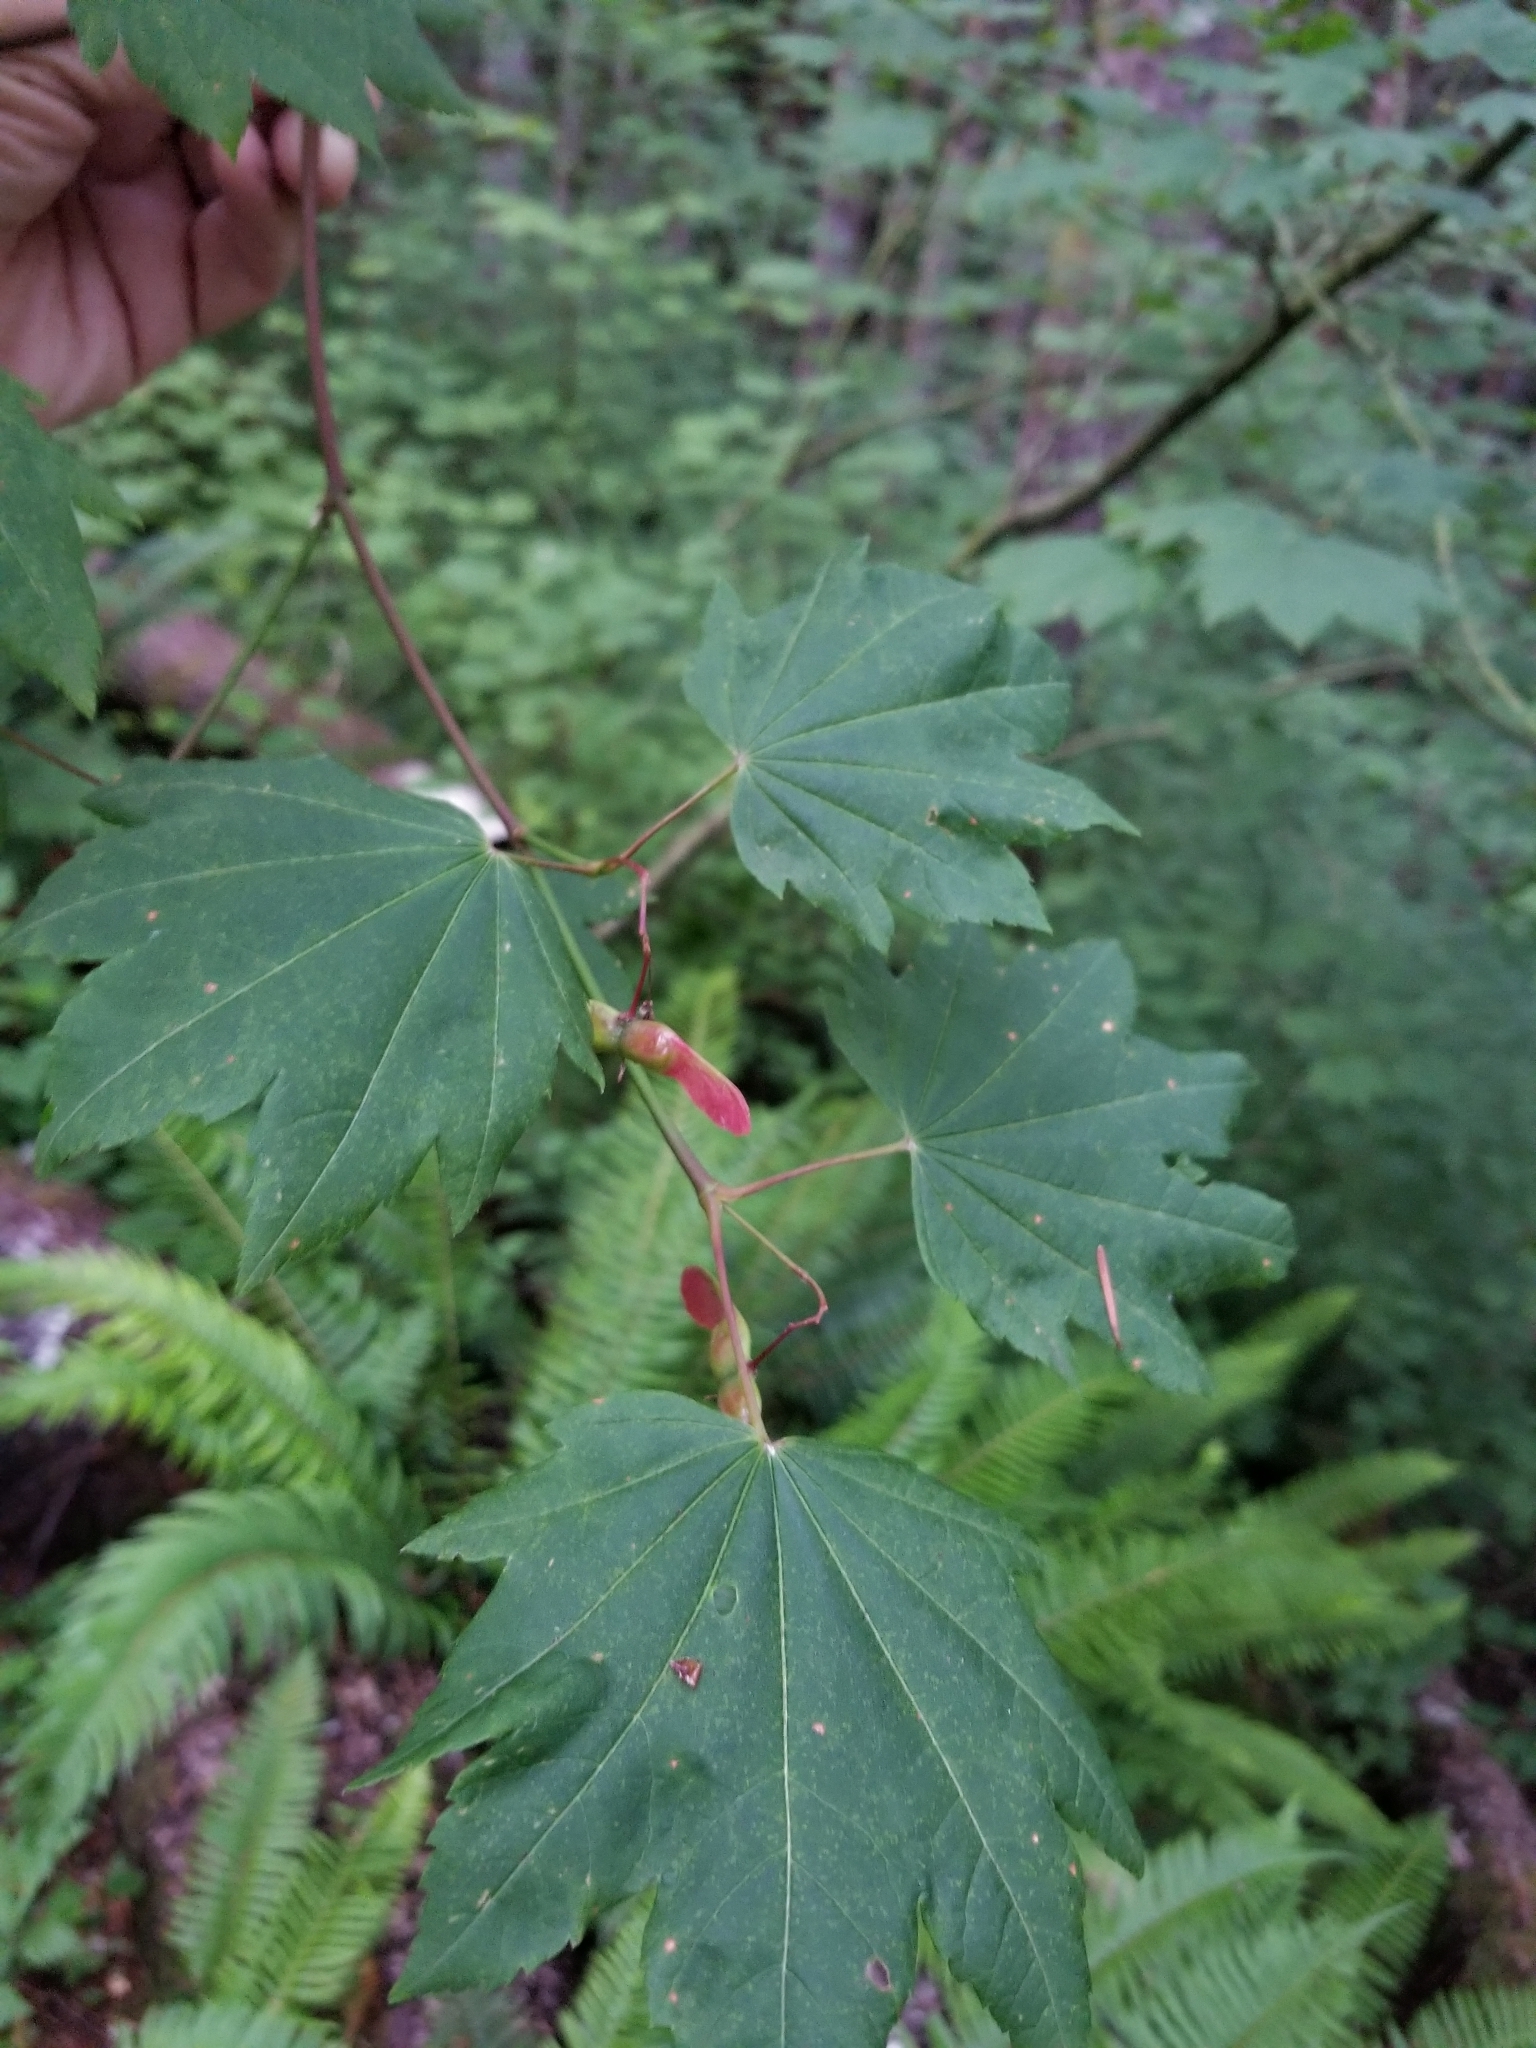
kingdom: Plantae
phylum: Tracheophyta
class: Magnoliopsida
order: Sapindales
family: Sapindaceae
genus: Acer
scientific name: Acer circinatum
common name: Vine maple
